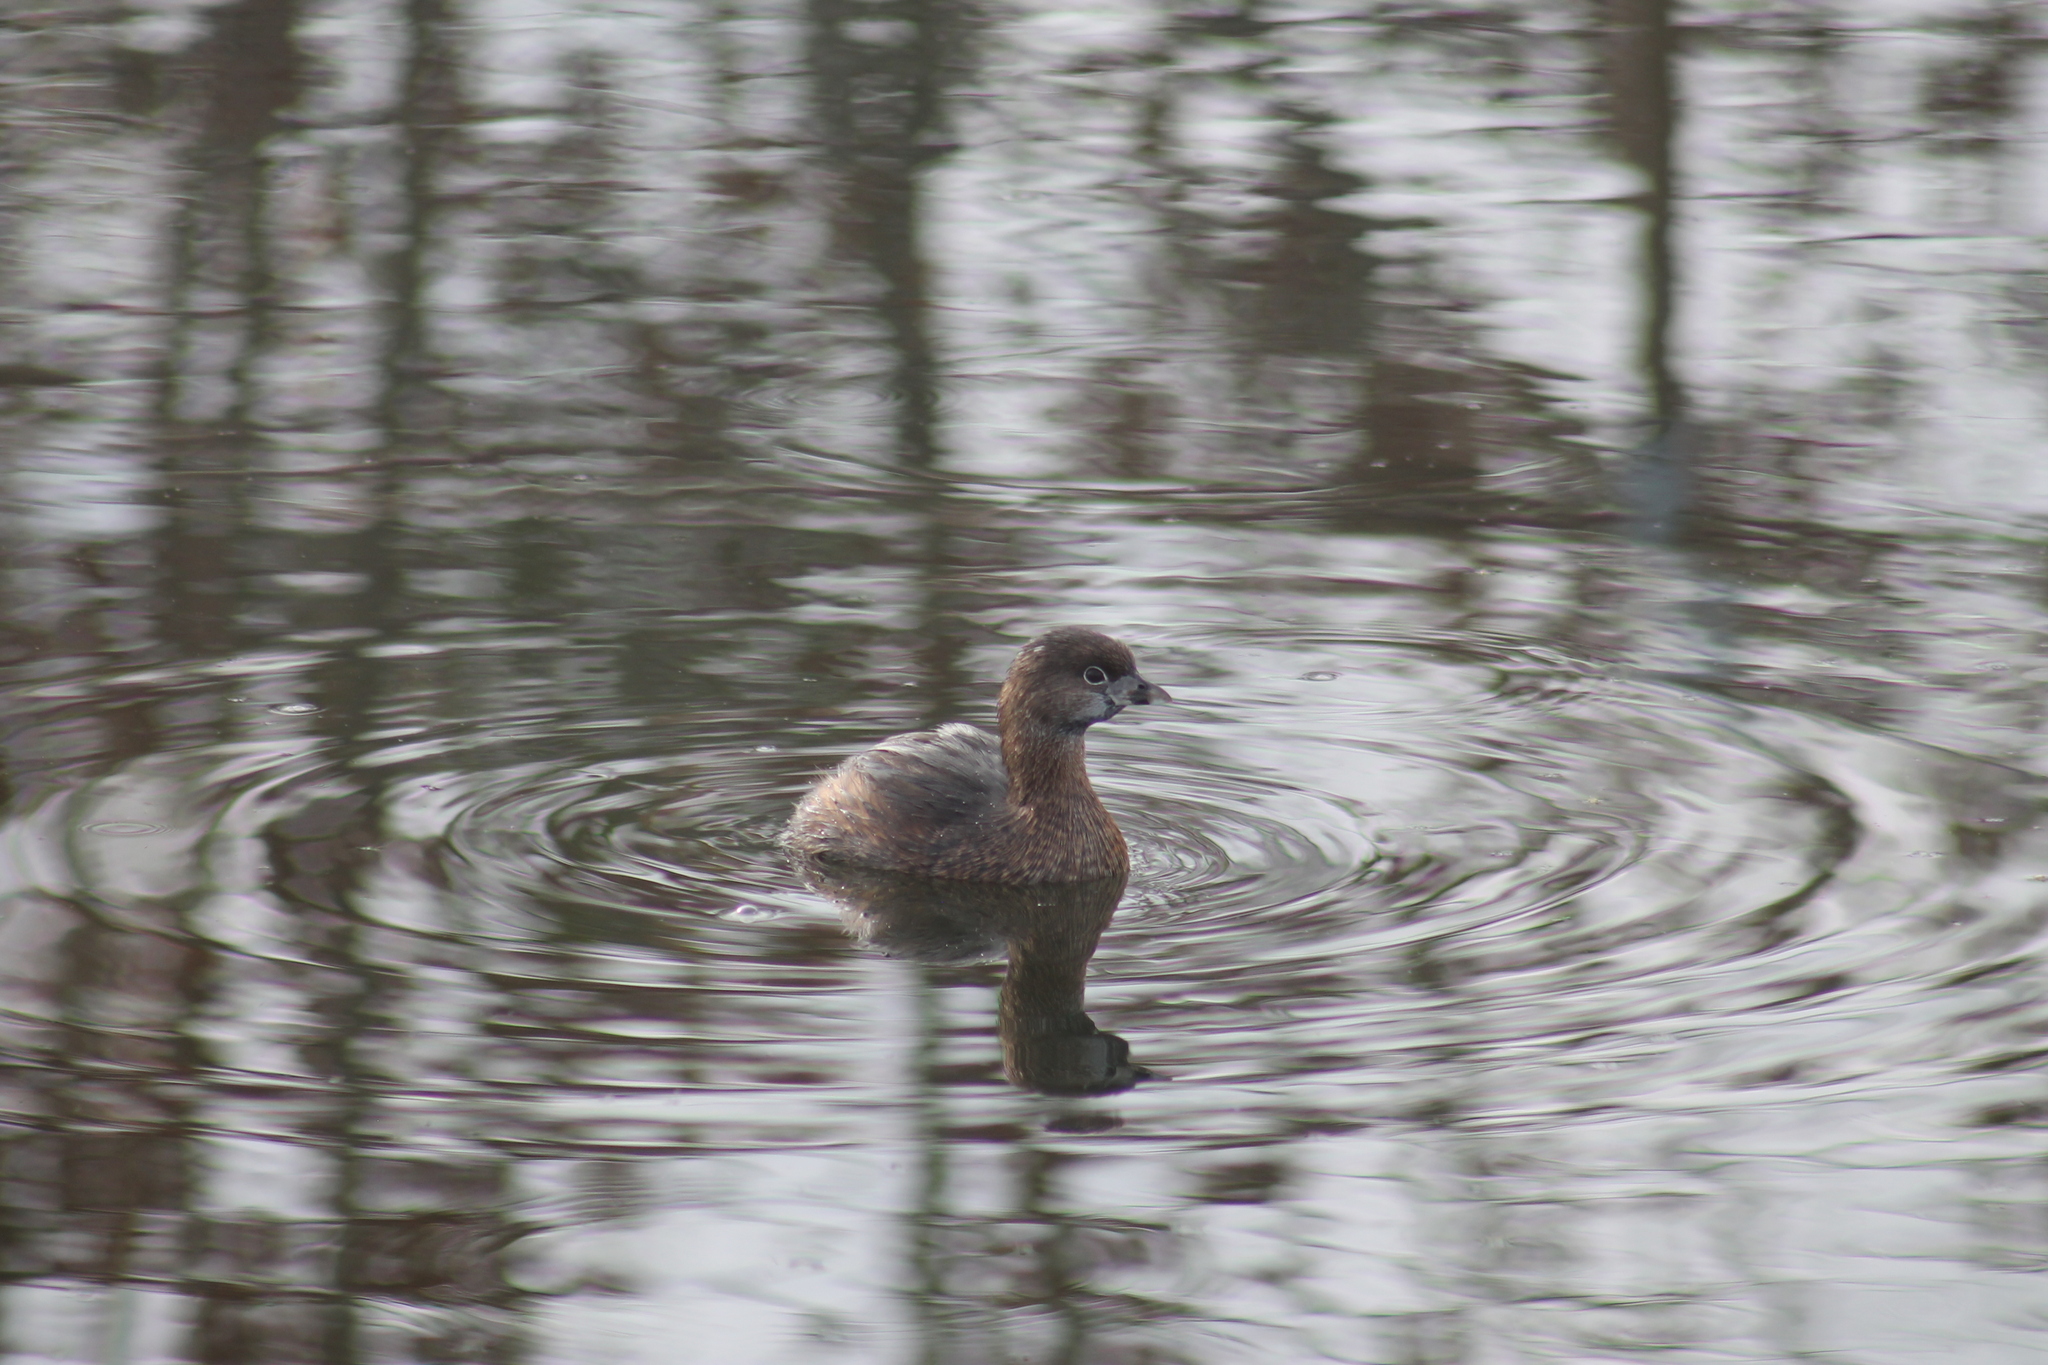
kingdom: Animalia
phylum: Chordata
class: Aves
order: Podicipediformes
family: Podicipedidae
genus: Podilymbus
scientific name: Podilymbus podiceps
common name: Pied-billed grebe
